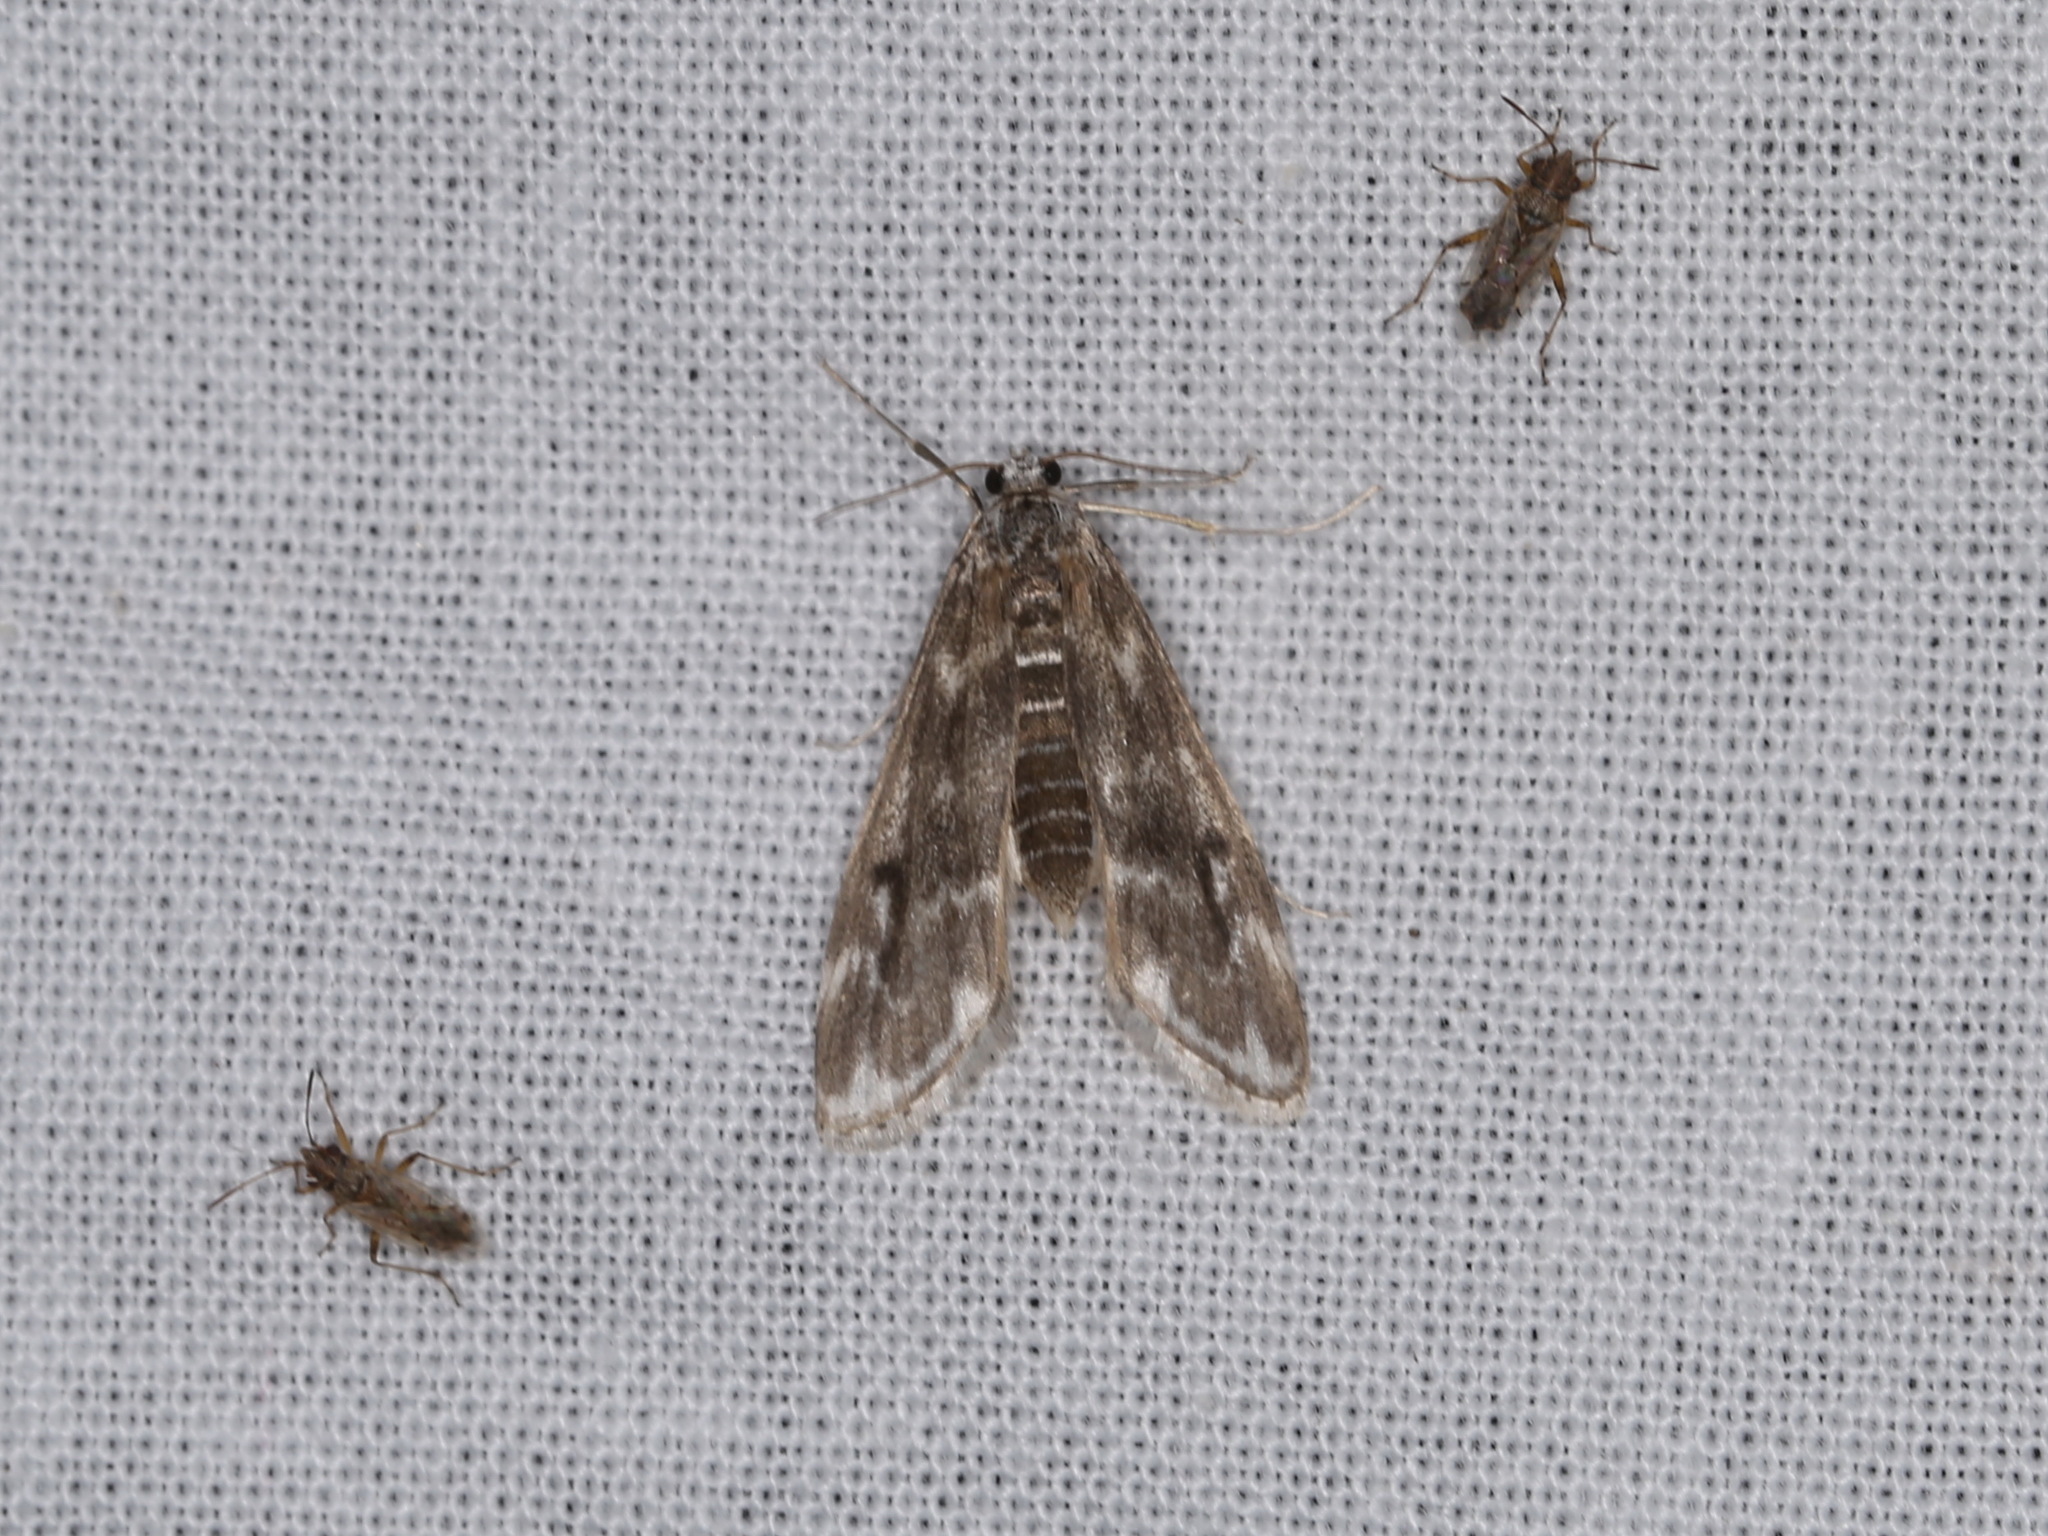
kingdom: Animalia
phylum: Arthropoda
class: Insecta
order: Lepidoptera
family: Crambidae
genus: Hygraula
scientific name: Hygraula nitens
